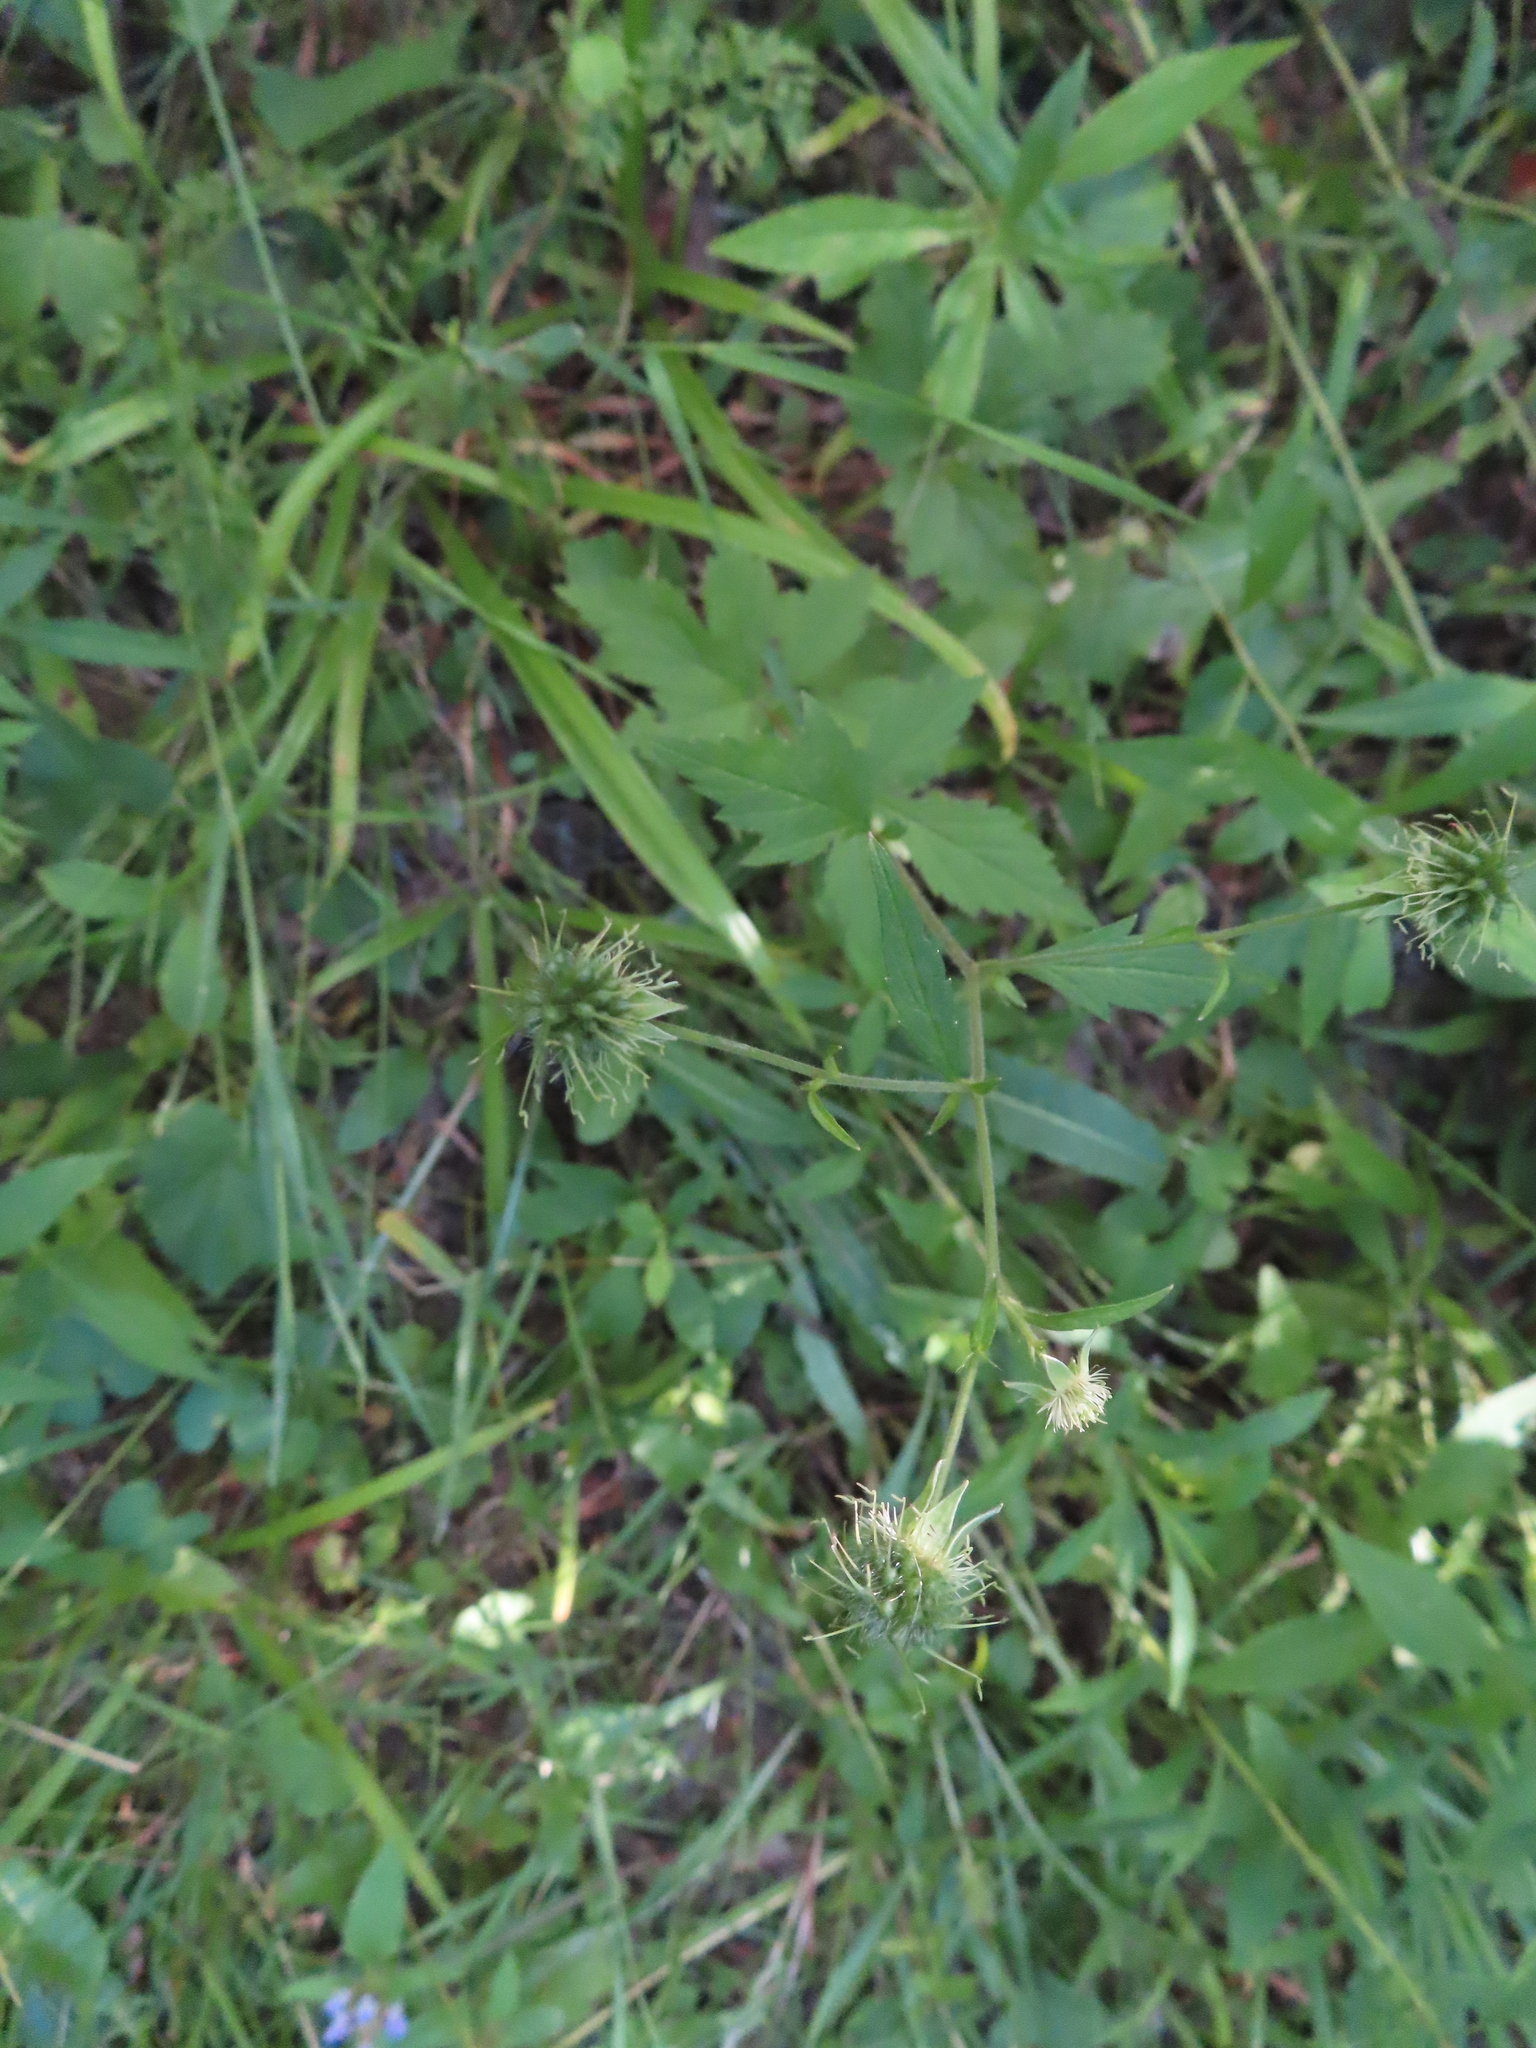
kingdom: Plantae
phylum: Tracheophyta
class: Magnoliopsida
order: Rosales
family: Rosaceae
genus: Geum
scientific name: Geum canadense
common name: White avens
